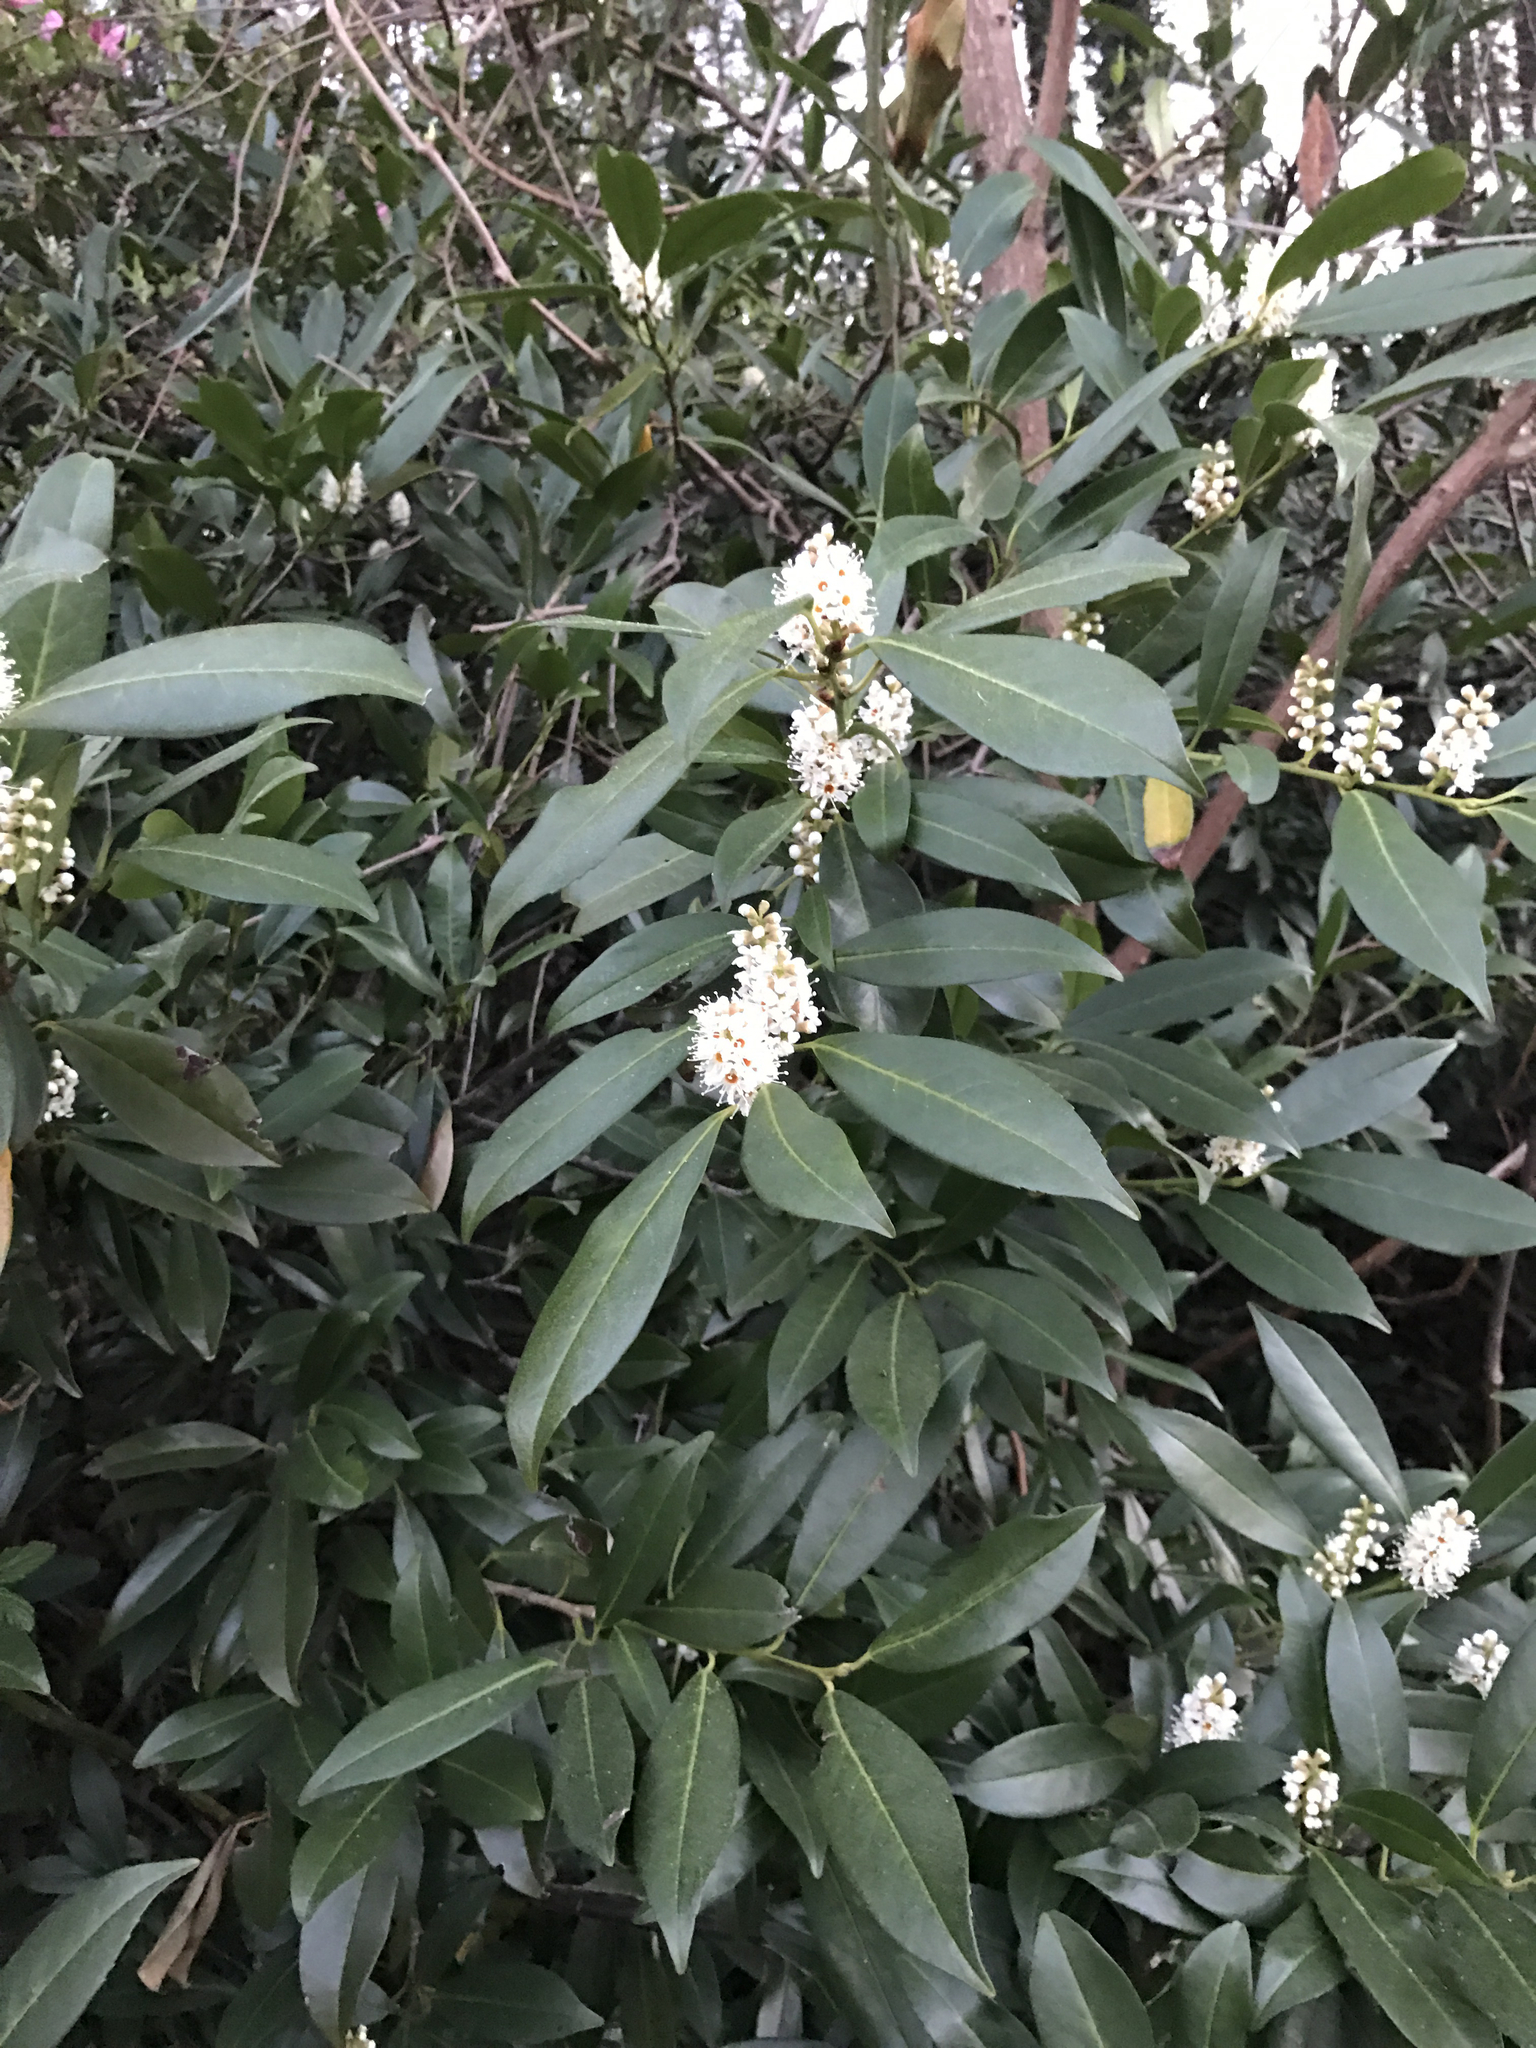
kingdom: Plantae
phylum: Tracheophyta
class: Magnoliopsida
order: Rosales
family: Rosaceae
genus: Prunus
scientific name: Prunus laurocerasus
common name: Cherry laurel
